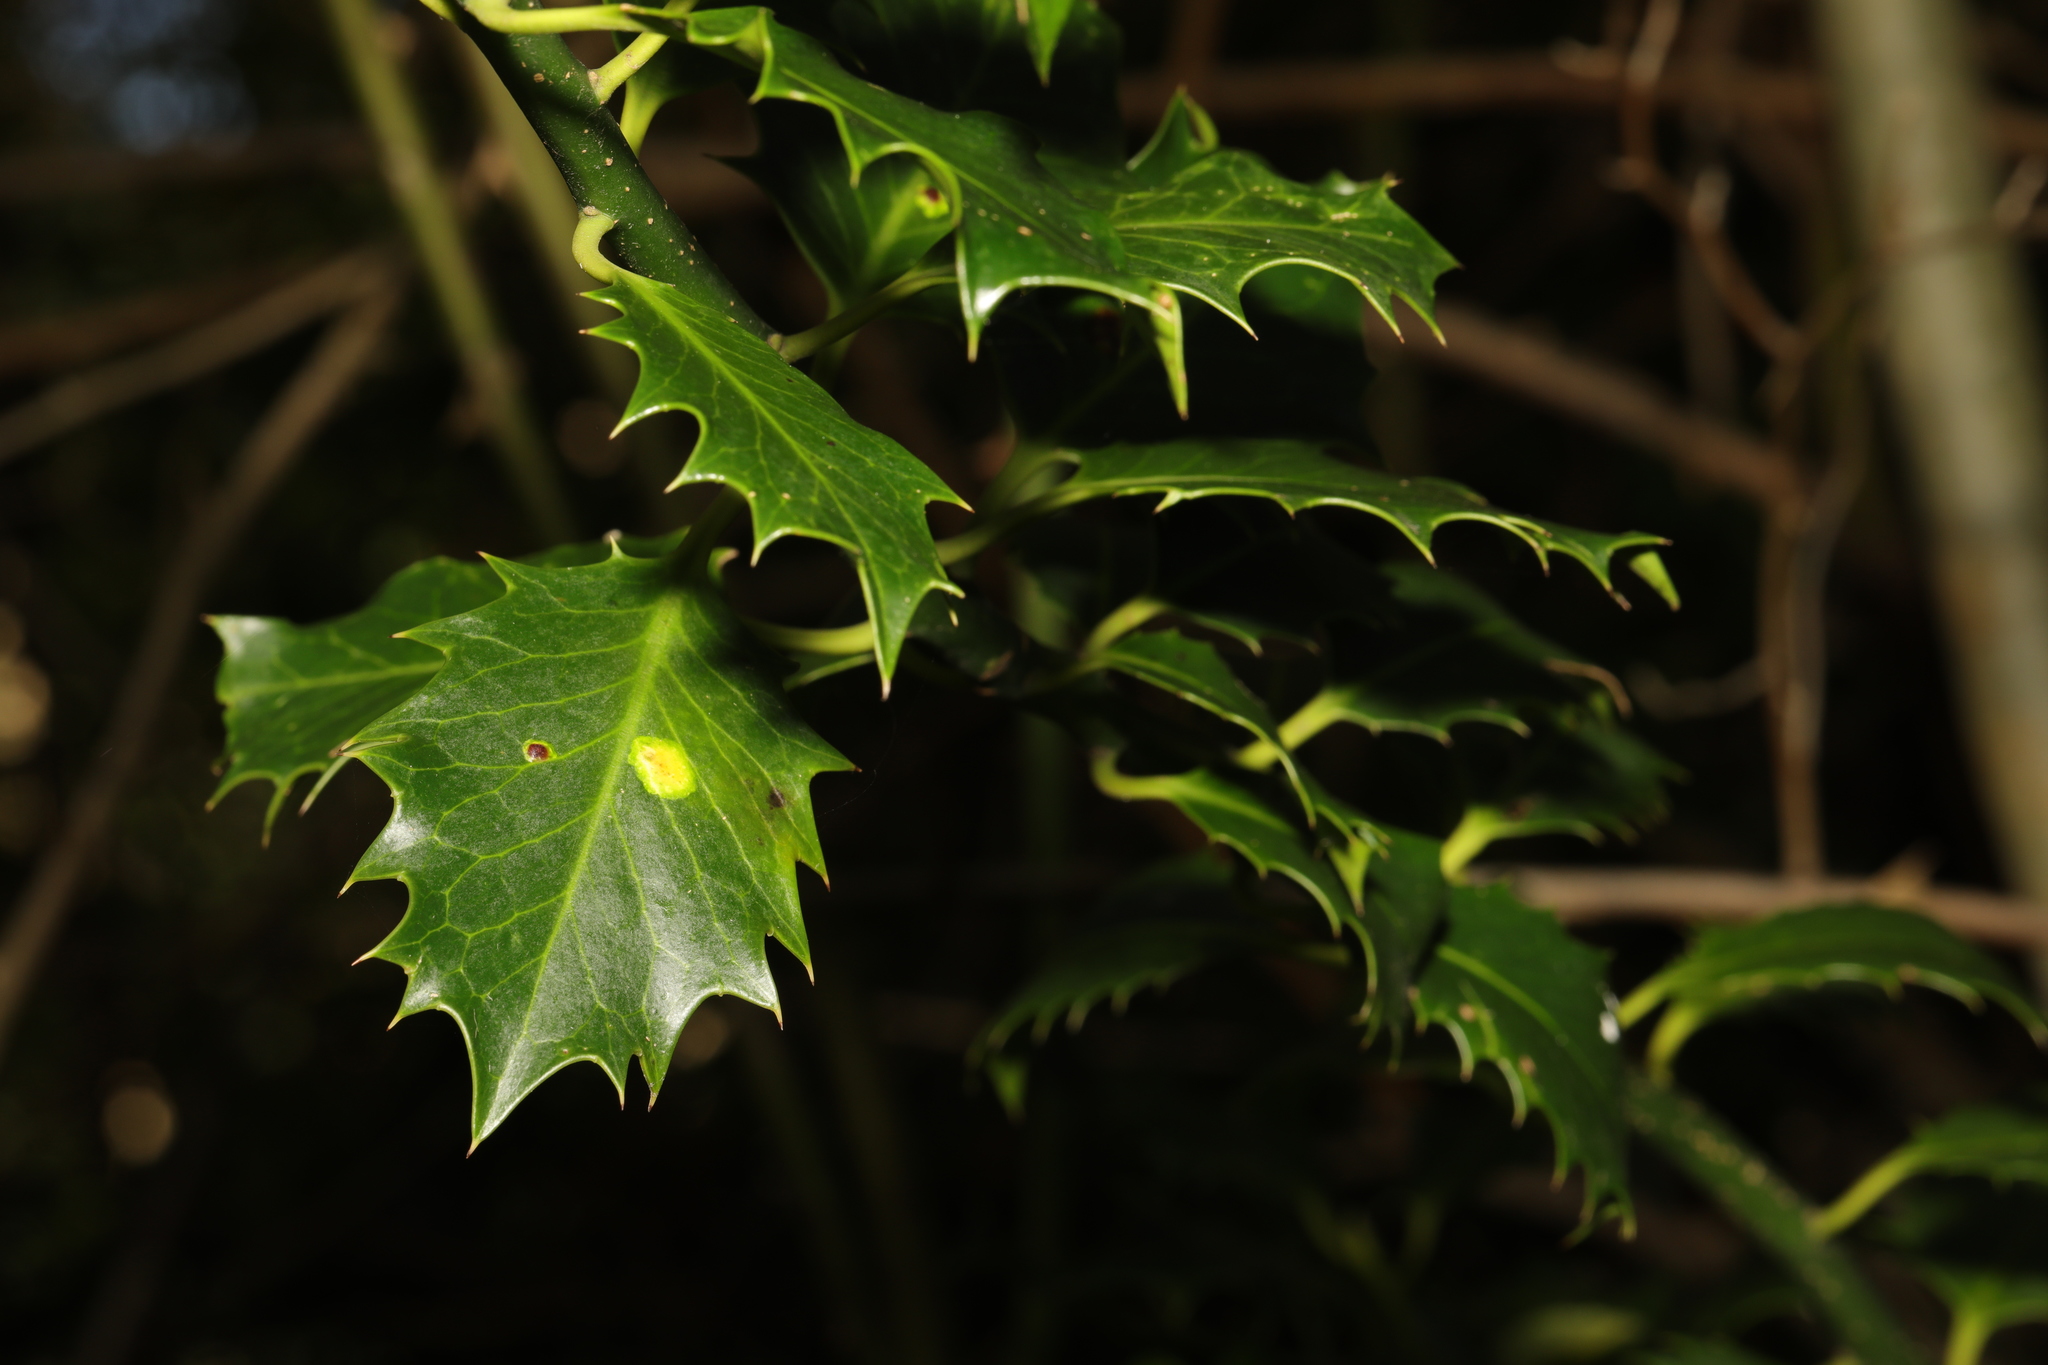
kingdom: Plantae
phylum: Tracheophyta
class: Magnoliopsida
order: Aquifoliales
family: Aquifoliaceae
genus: Ilex
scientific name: Ilex aquifolium
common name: English holly
